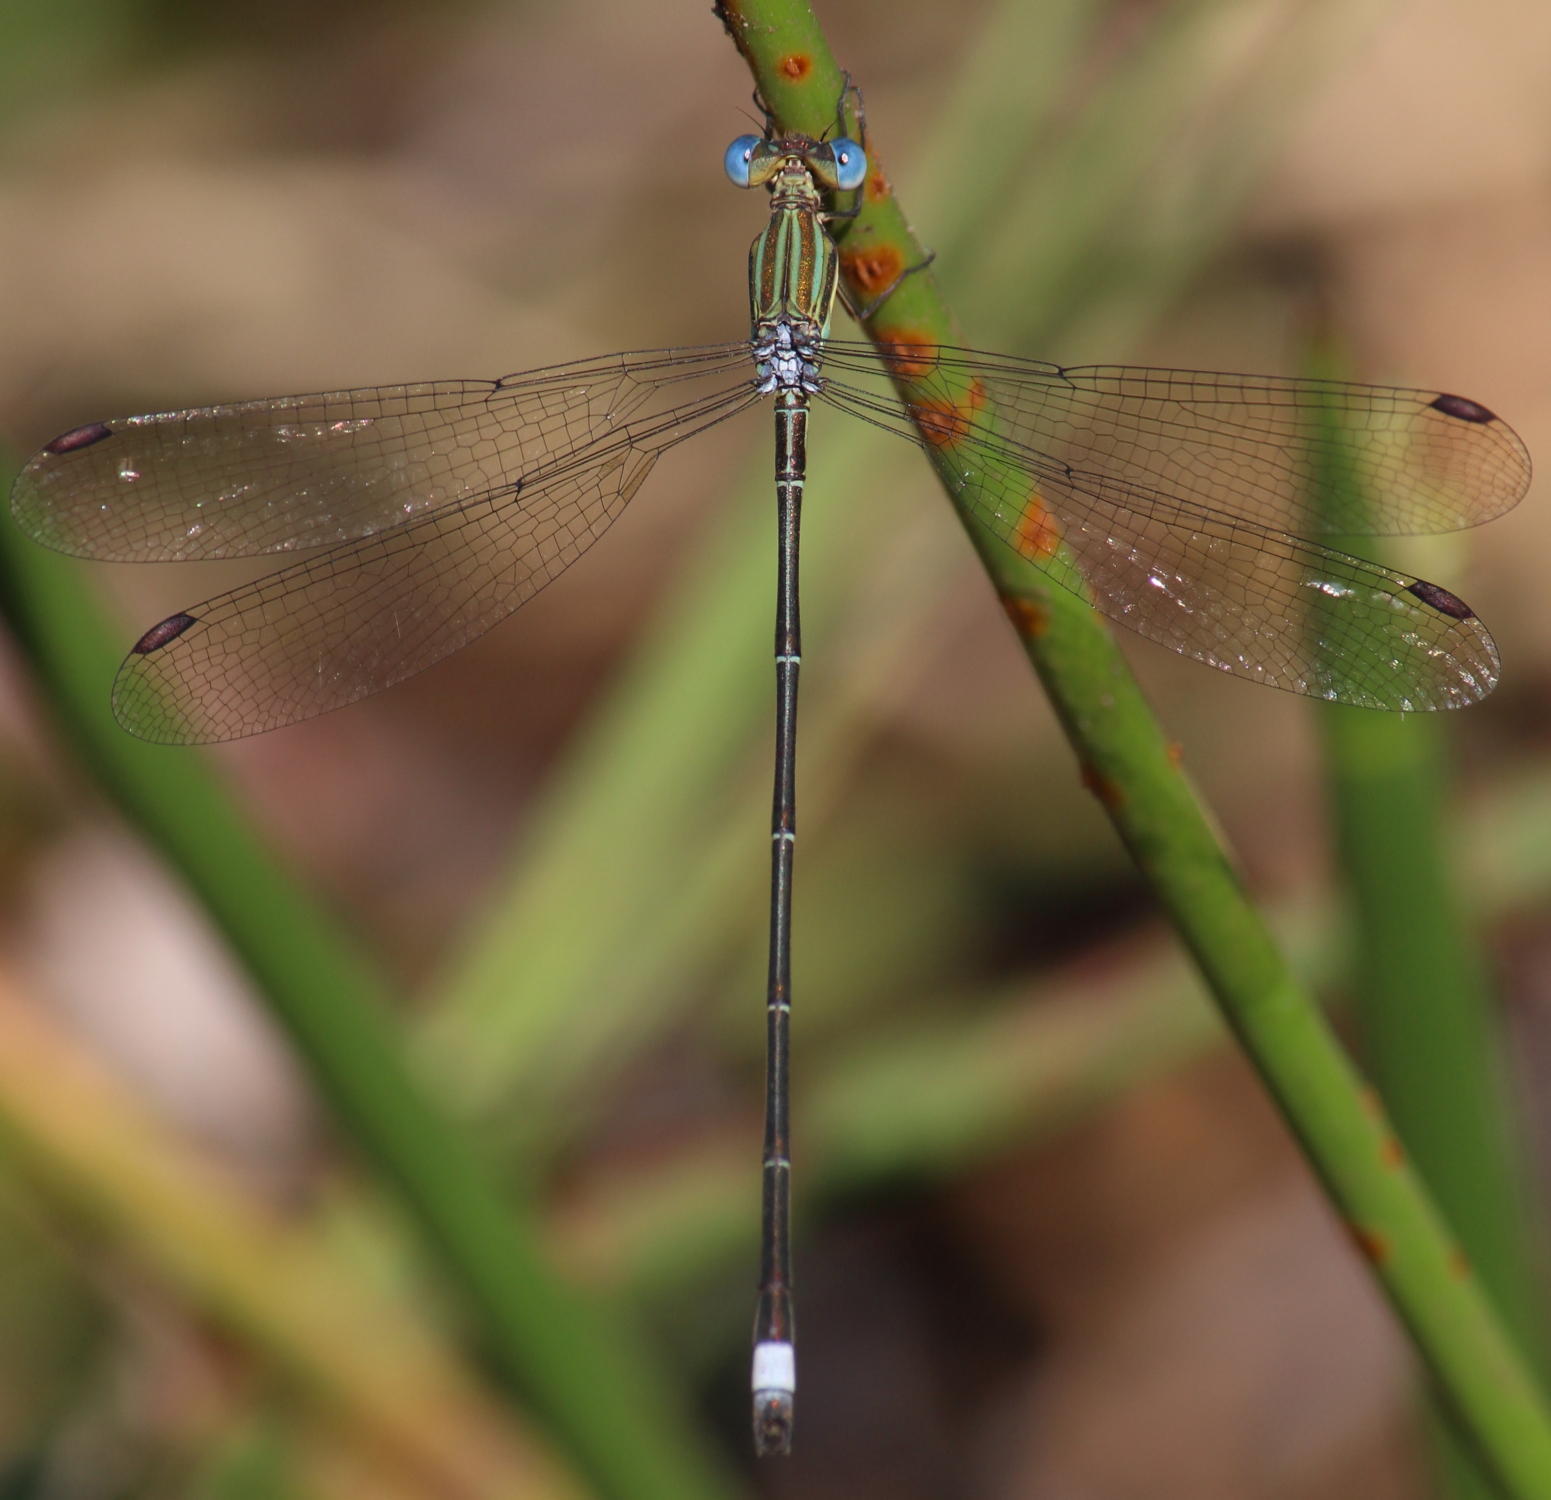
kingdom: Animalia
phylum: Arthropoda
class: Insecta
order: Odonata
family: Lestidae
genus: Lestes
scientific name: Lestes virgatus
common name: Smoky spreadwing
